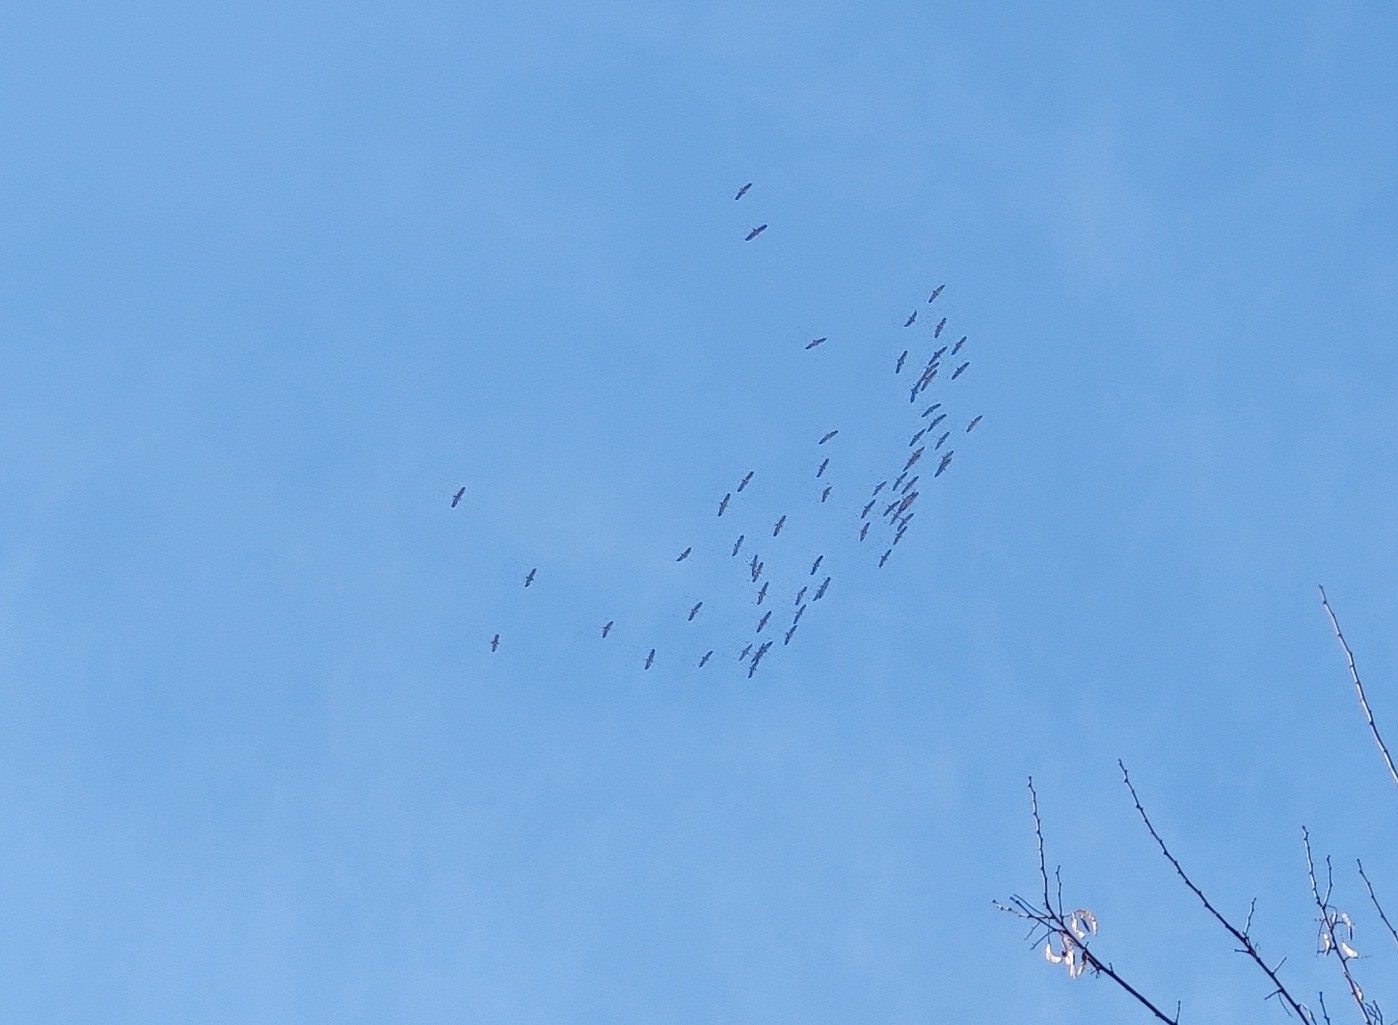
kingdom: Animalia
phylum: Chordata
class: Aves
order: Gruiformes
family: Gruidae
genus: Grus
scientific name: Grus grus
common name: Common crane
